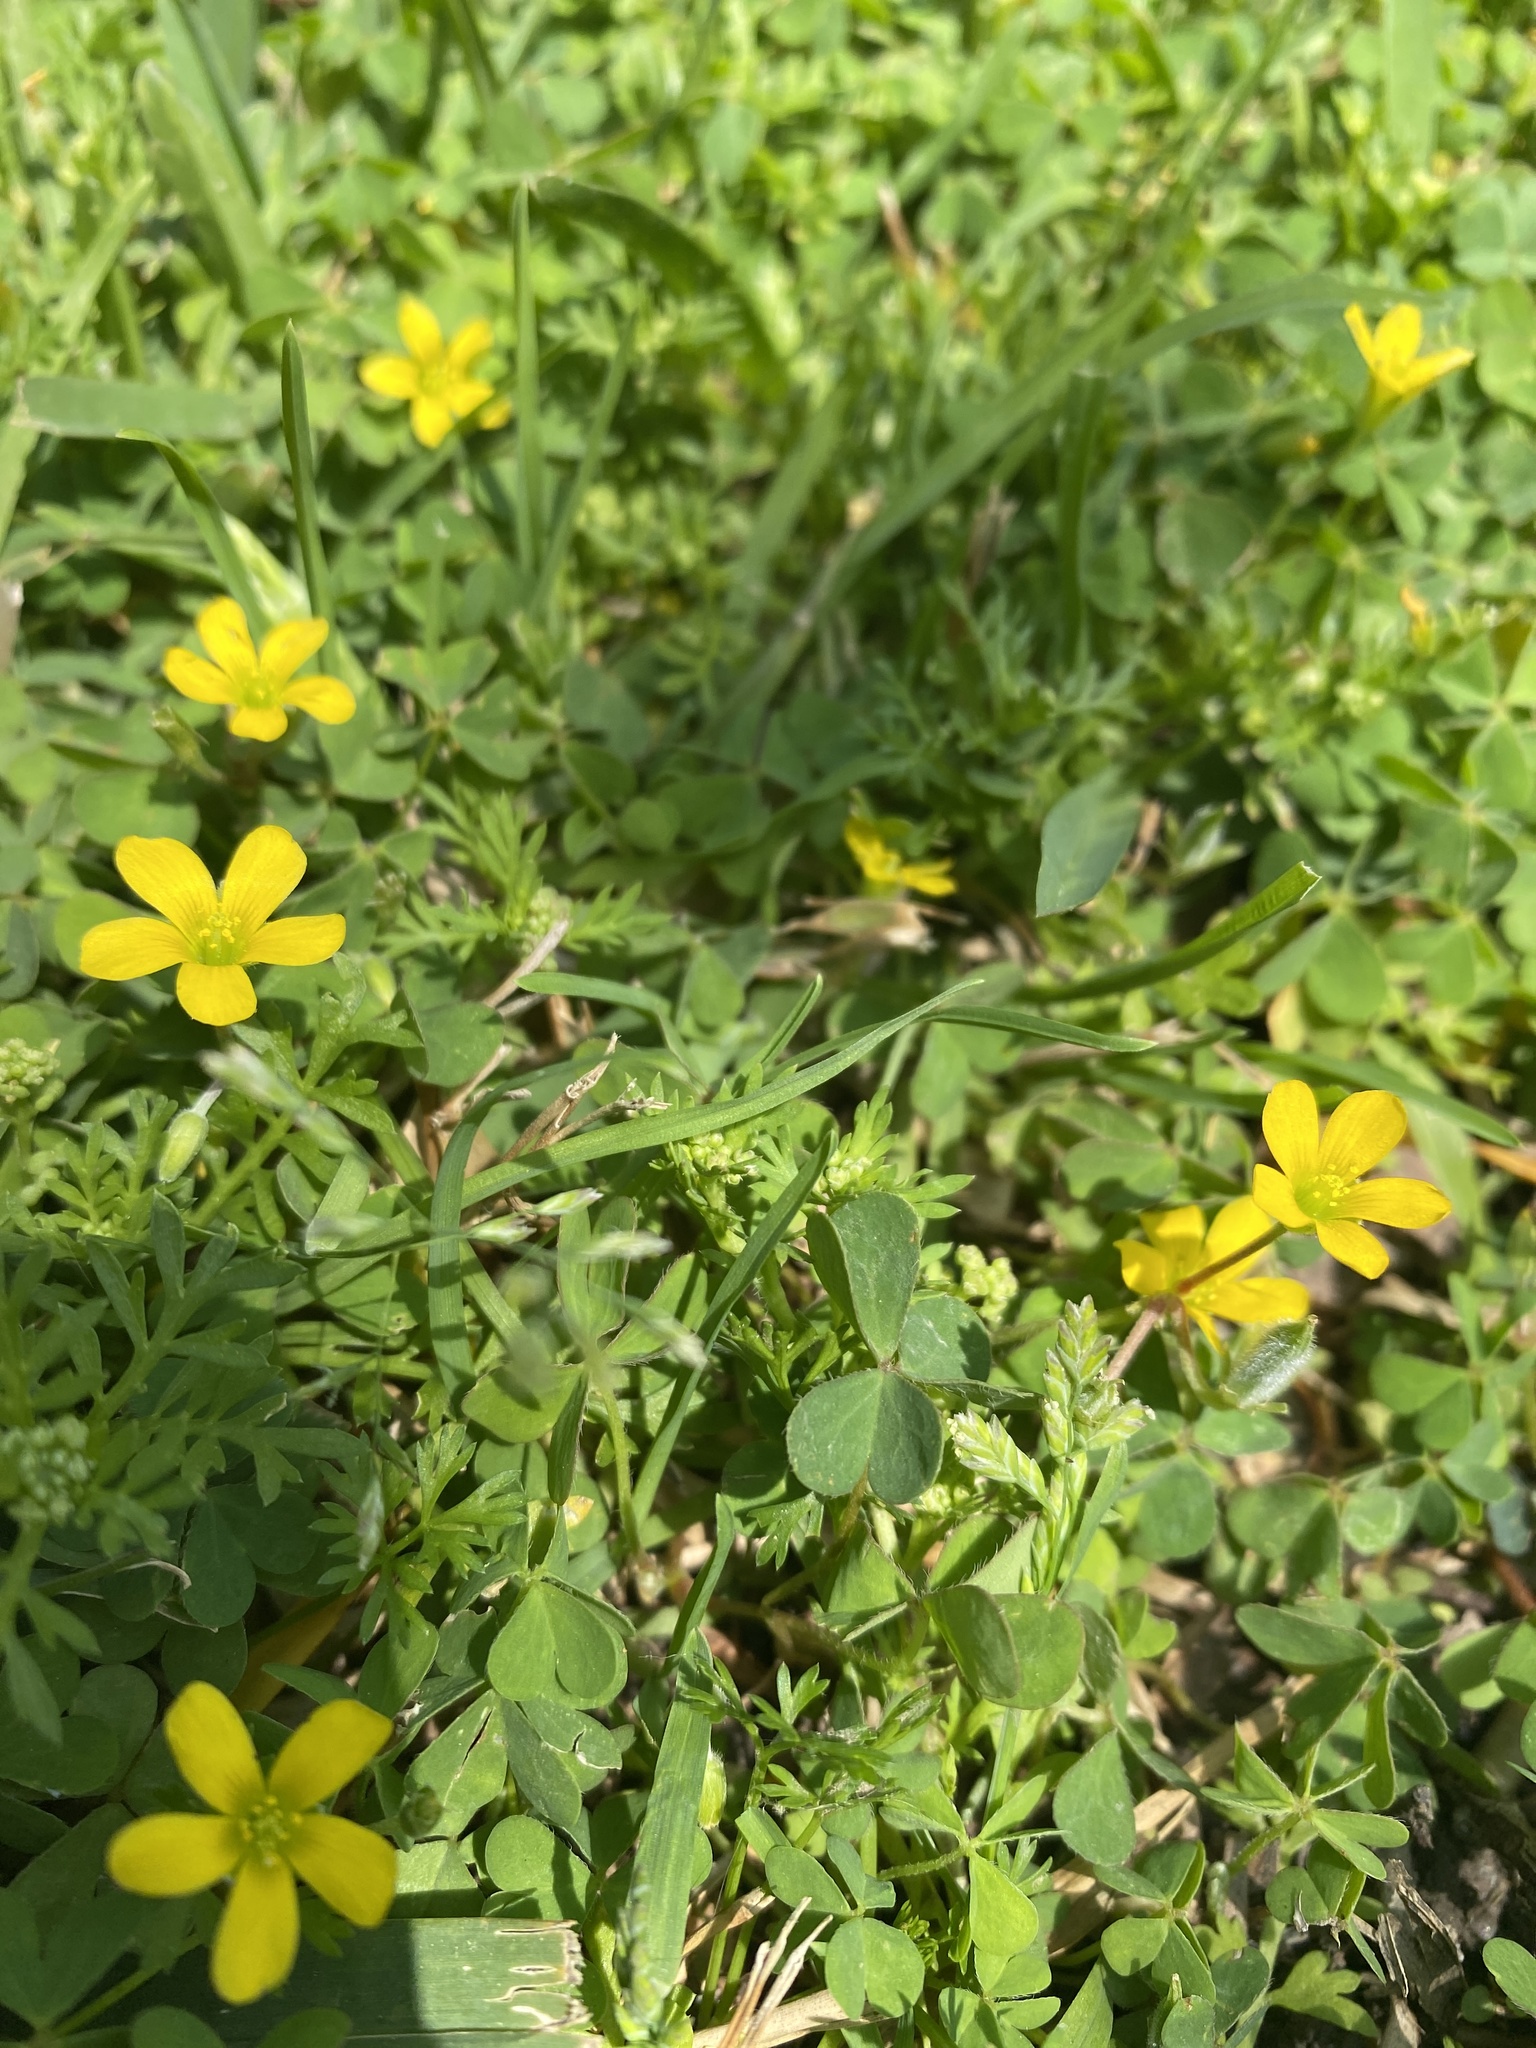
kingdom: Plantae
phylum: Tracheophyta
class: Magnoliopsida
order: Oxalidales
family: Oxalidaceae
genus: Oxalis
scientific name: Oxalis corniculata
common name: Procumbent yellow-sorrel
